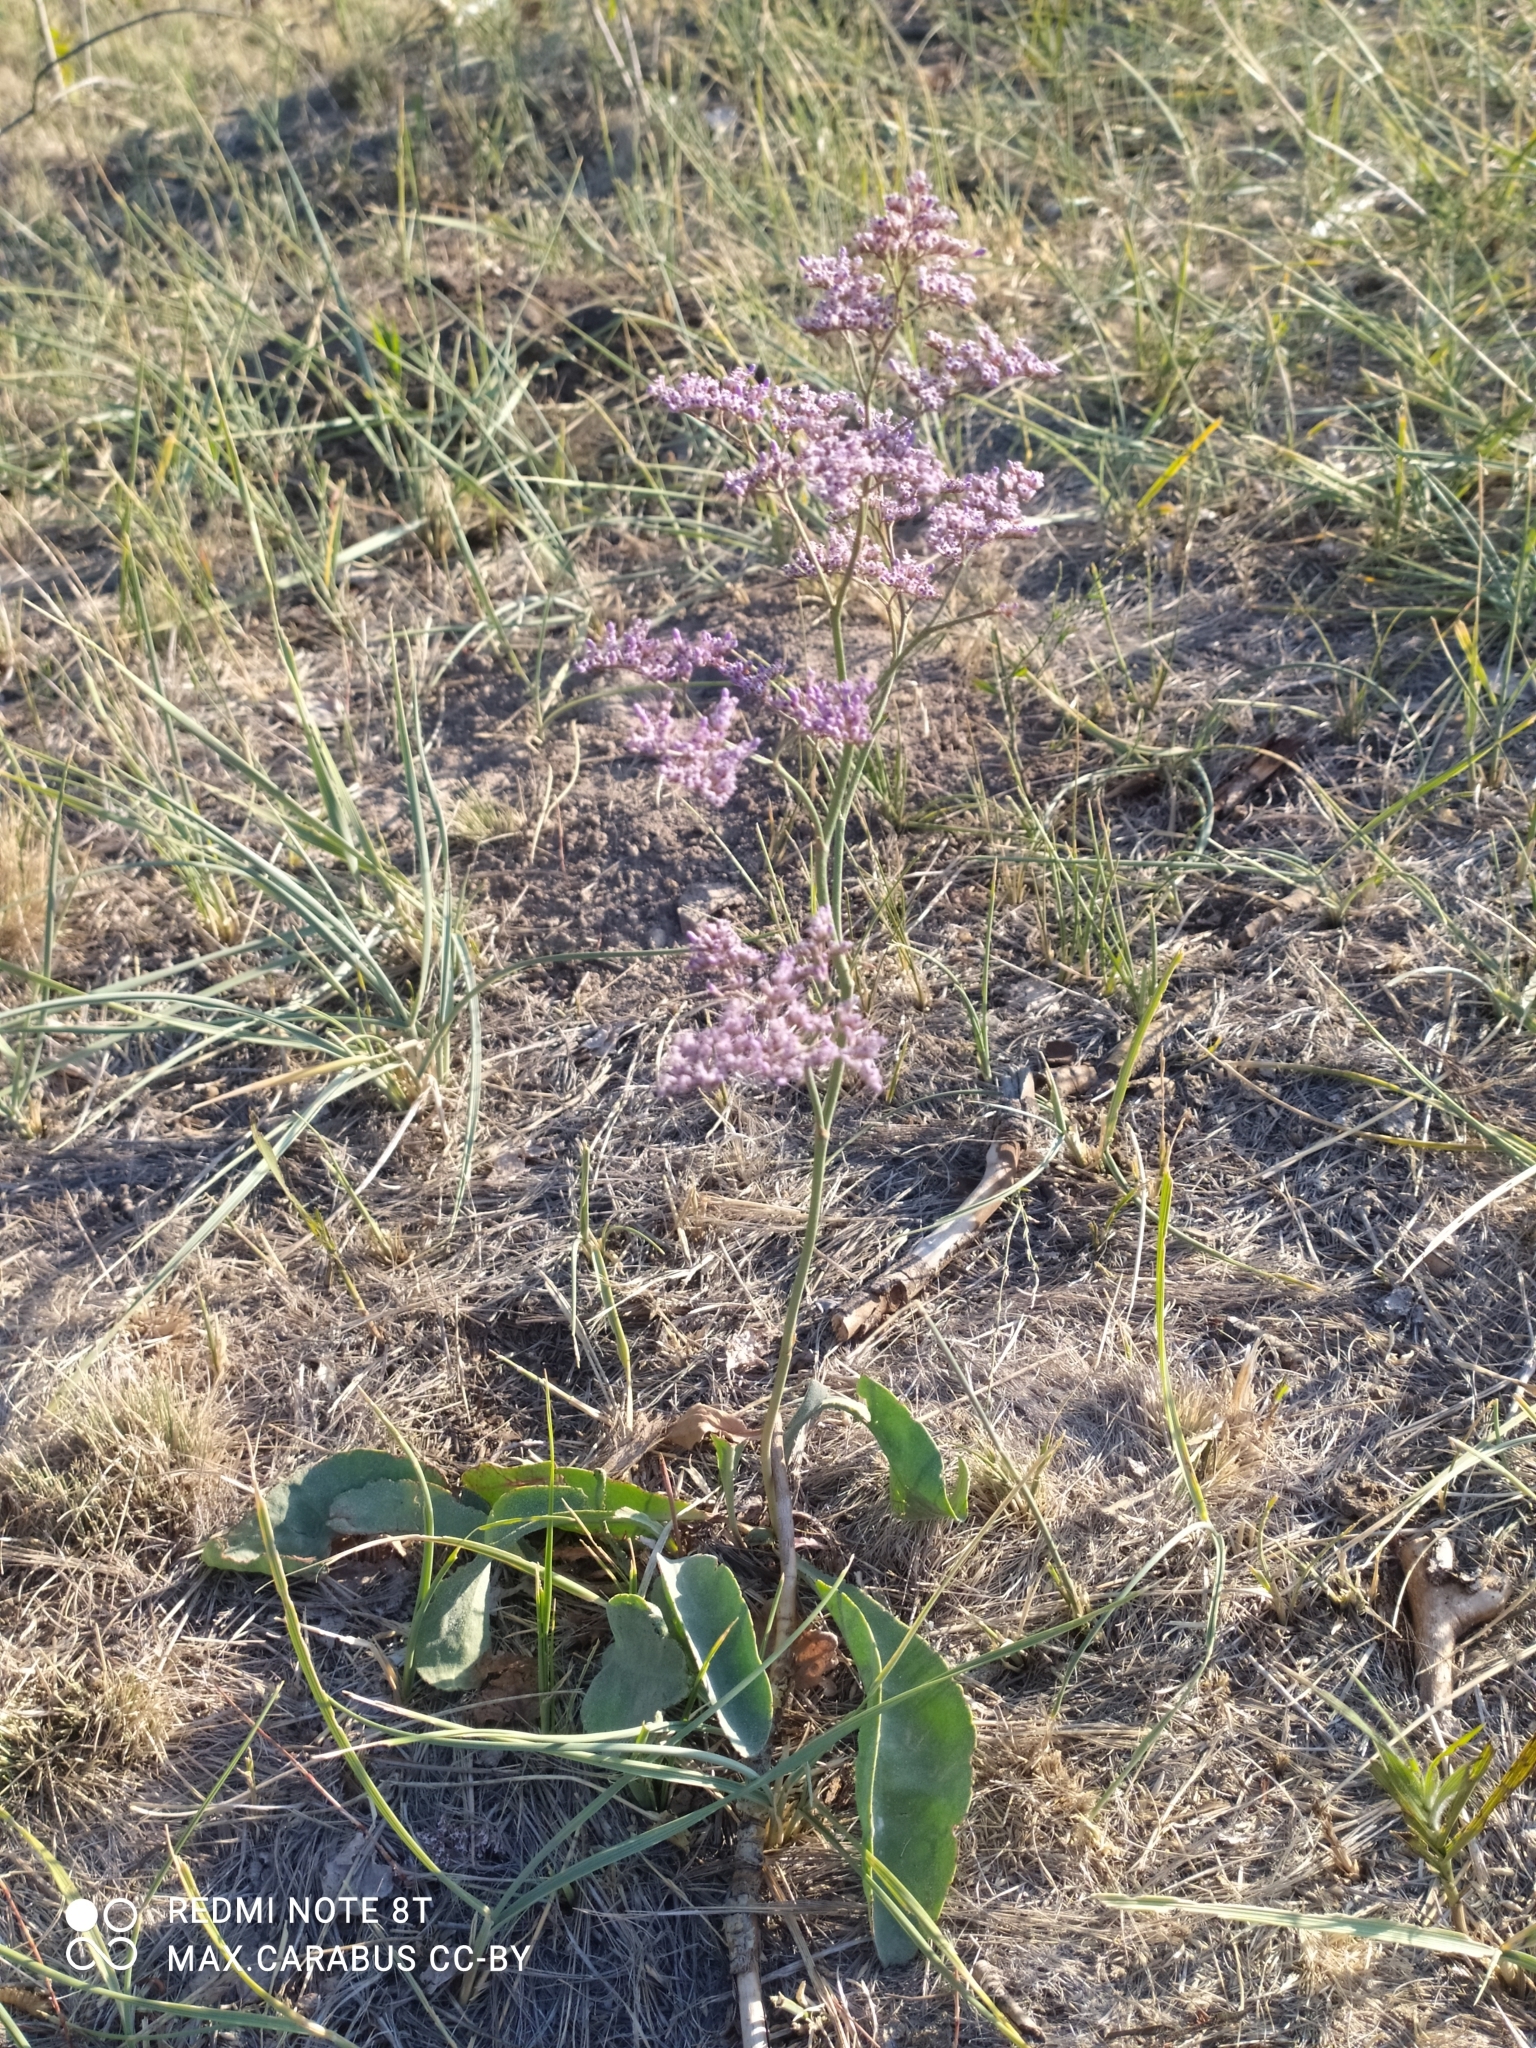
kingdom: Plantae
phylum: Tracheophyta
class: Magnoliopsida
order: Caryophyllales
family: Plumbaginaceae
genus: Limonium
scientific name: Limonium gmelini
